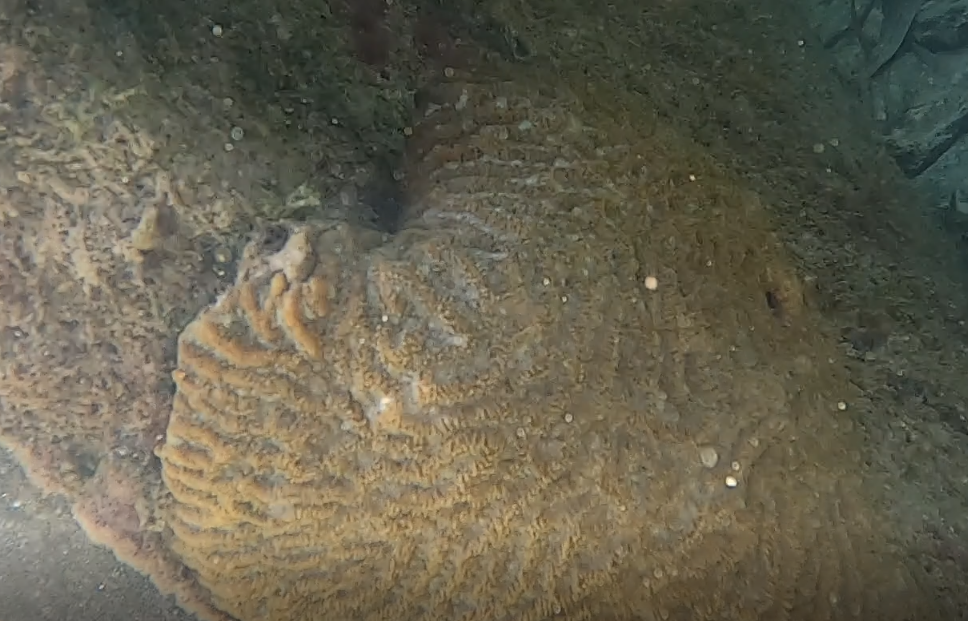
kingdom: Animalia
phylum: Cnidaria
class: Anthozoa
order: Scleractinia
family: Faviidae
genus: Pseudodiploria
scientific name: Pseudodiploria clivosa
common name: Knobby brain coral
